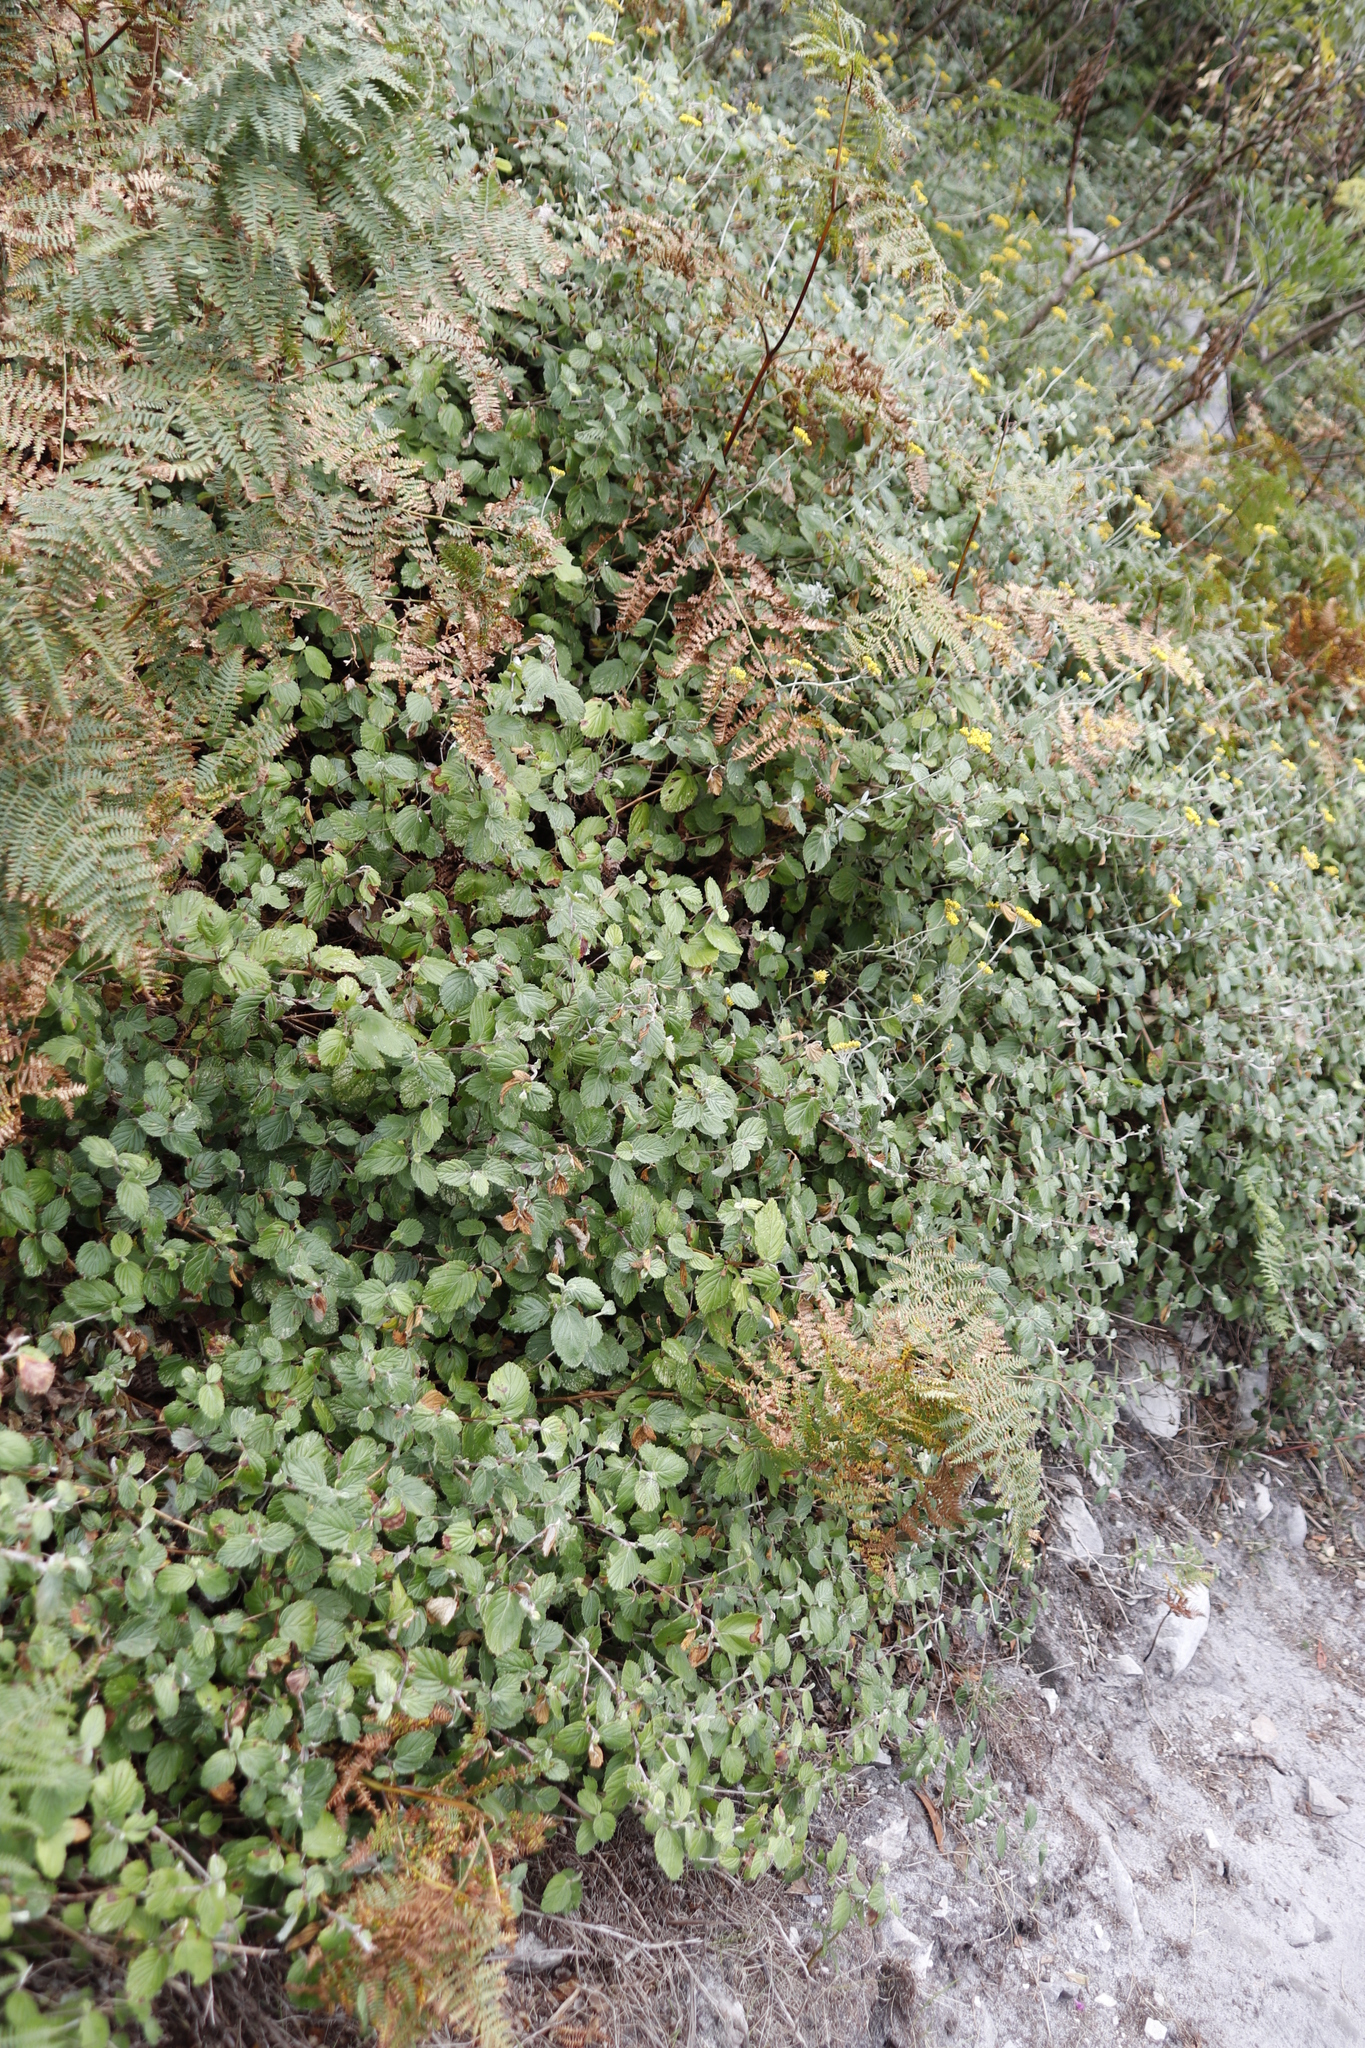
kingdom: Plantae
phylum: Tracheophyta
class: Magnoliopsida
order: Rosales
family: Rosaceae
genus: Cliffortia
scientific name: Cliffortia odorata
